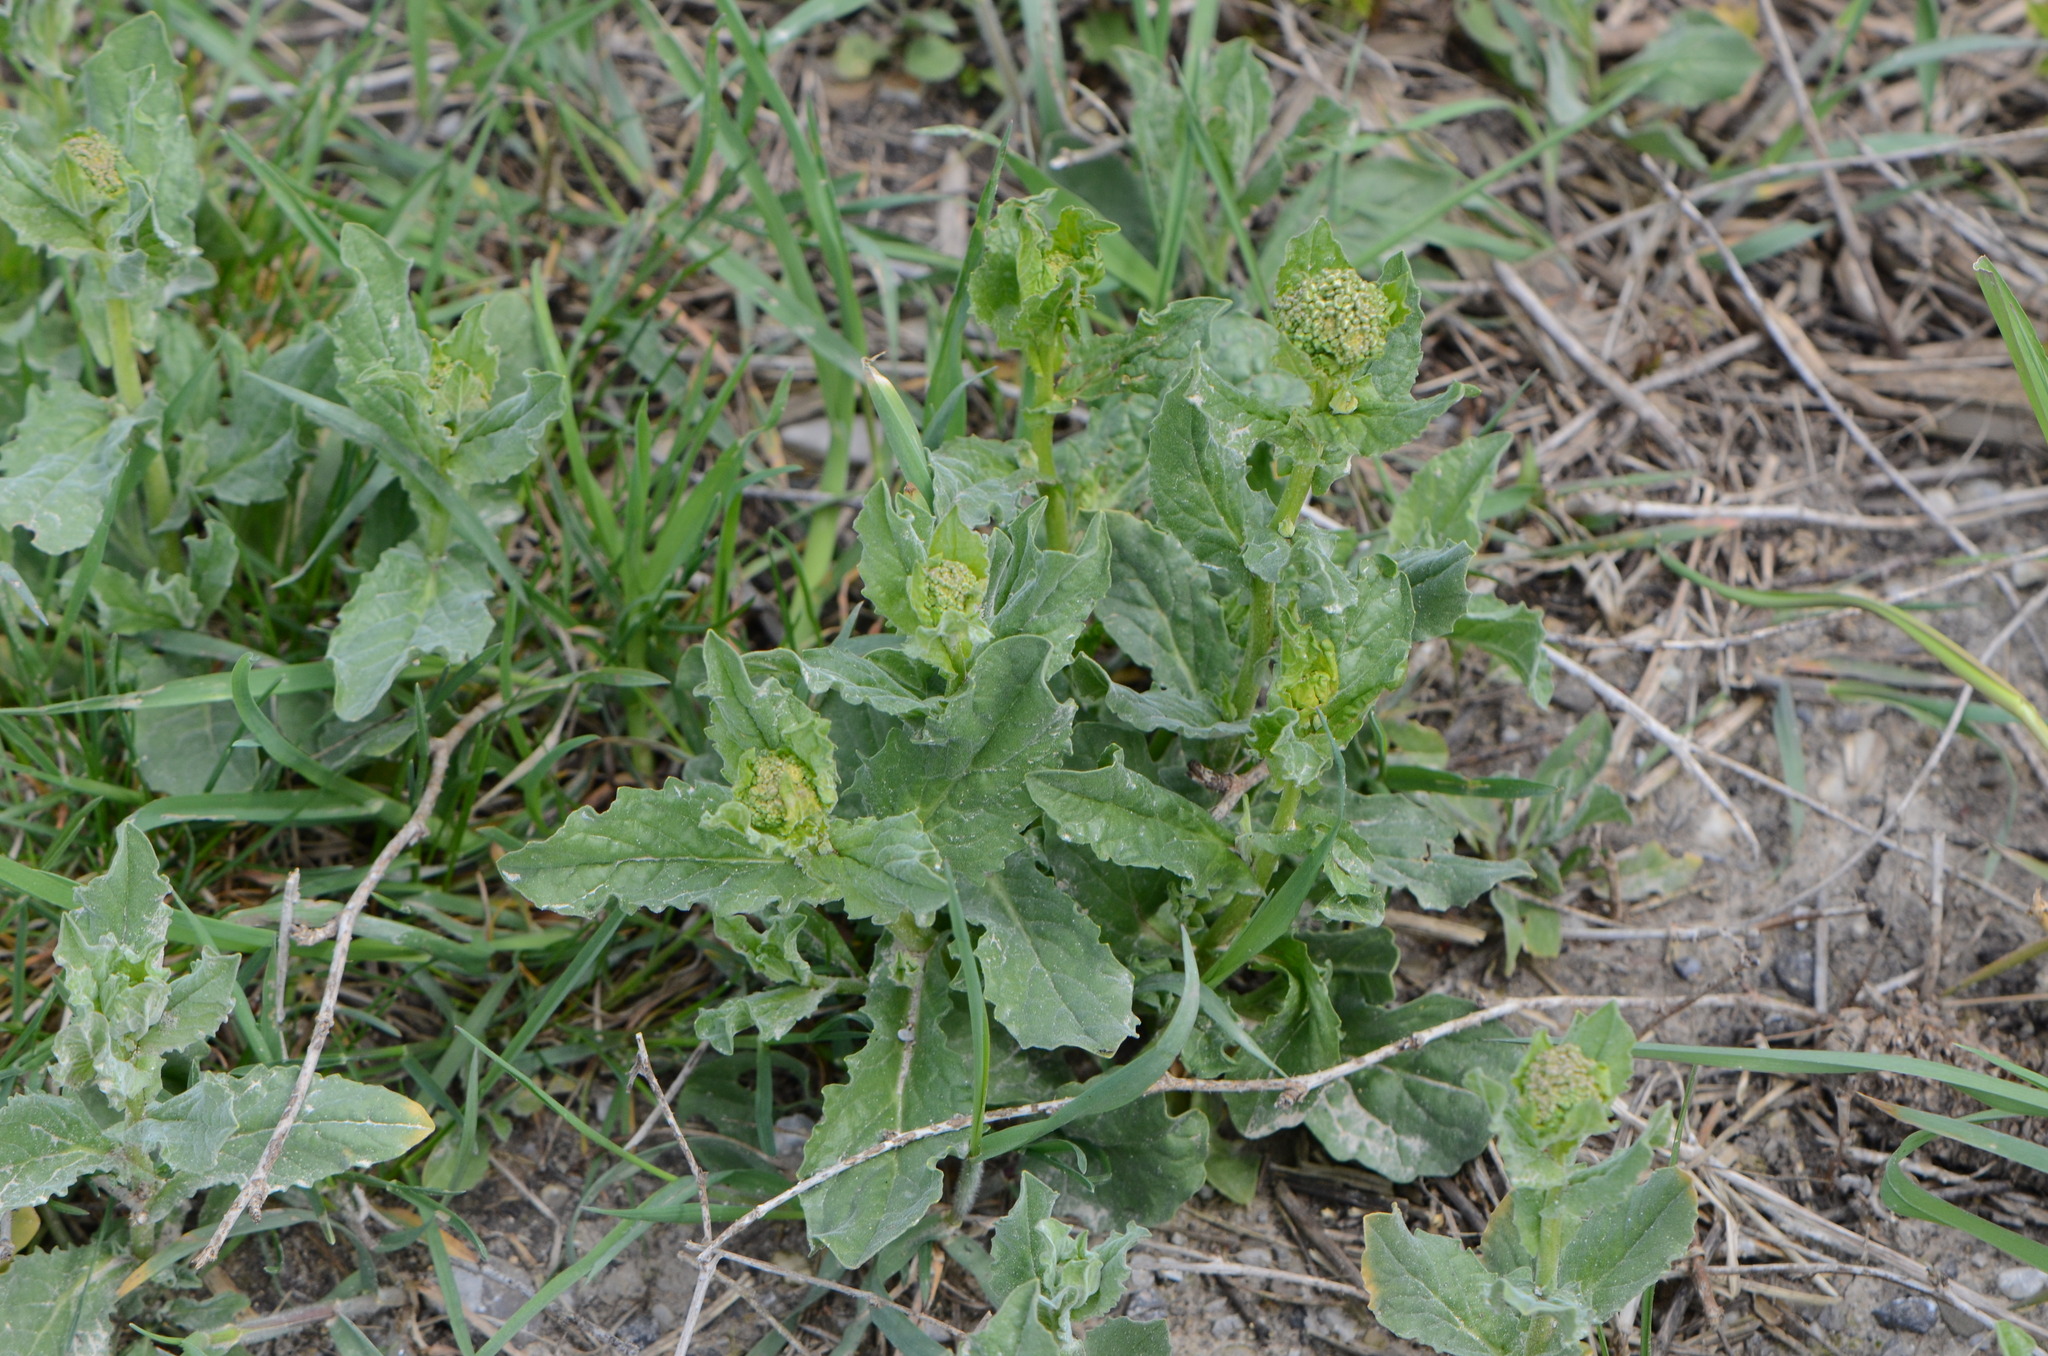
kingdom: Plantae
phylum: Tracheophyta
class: Magnoliopsida
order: Brassicales
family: Brassicaceae
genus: Lepidium
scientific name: Lepidium draba
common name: Hoary cress
